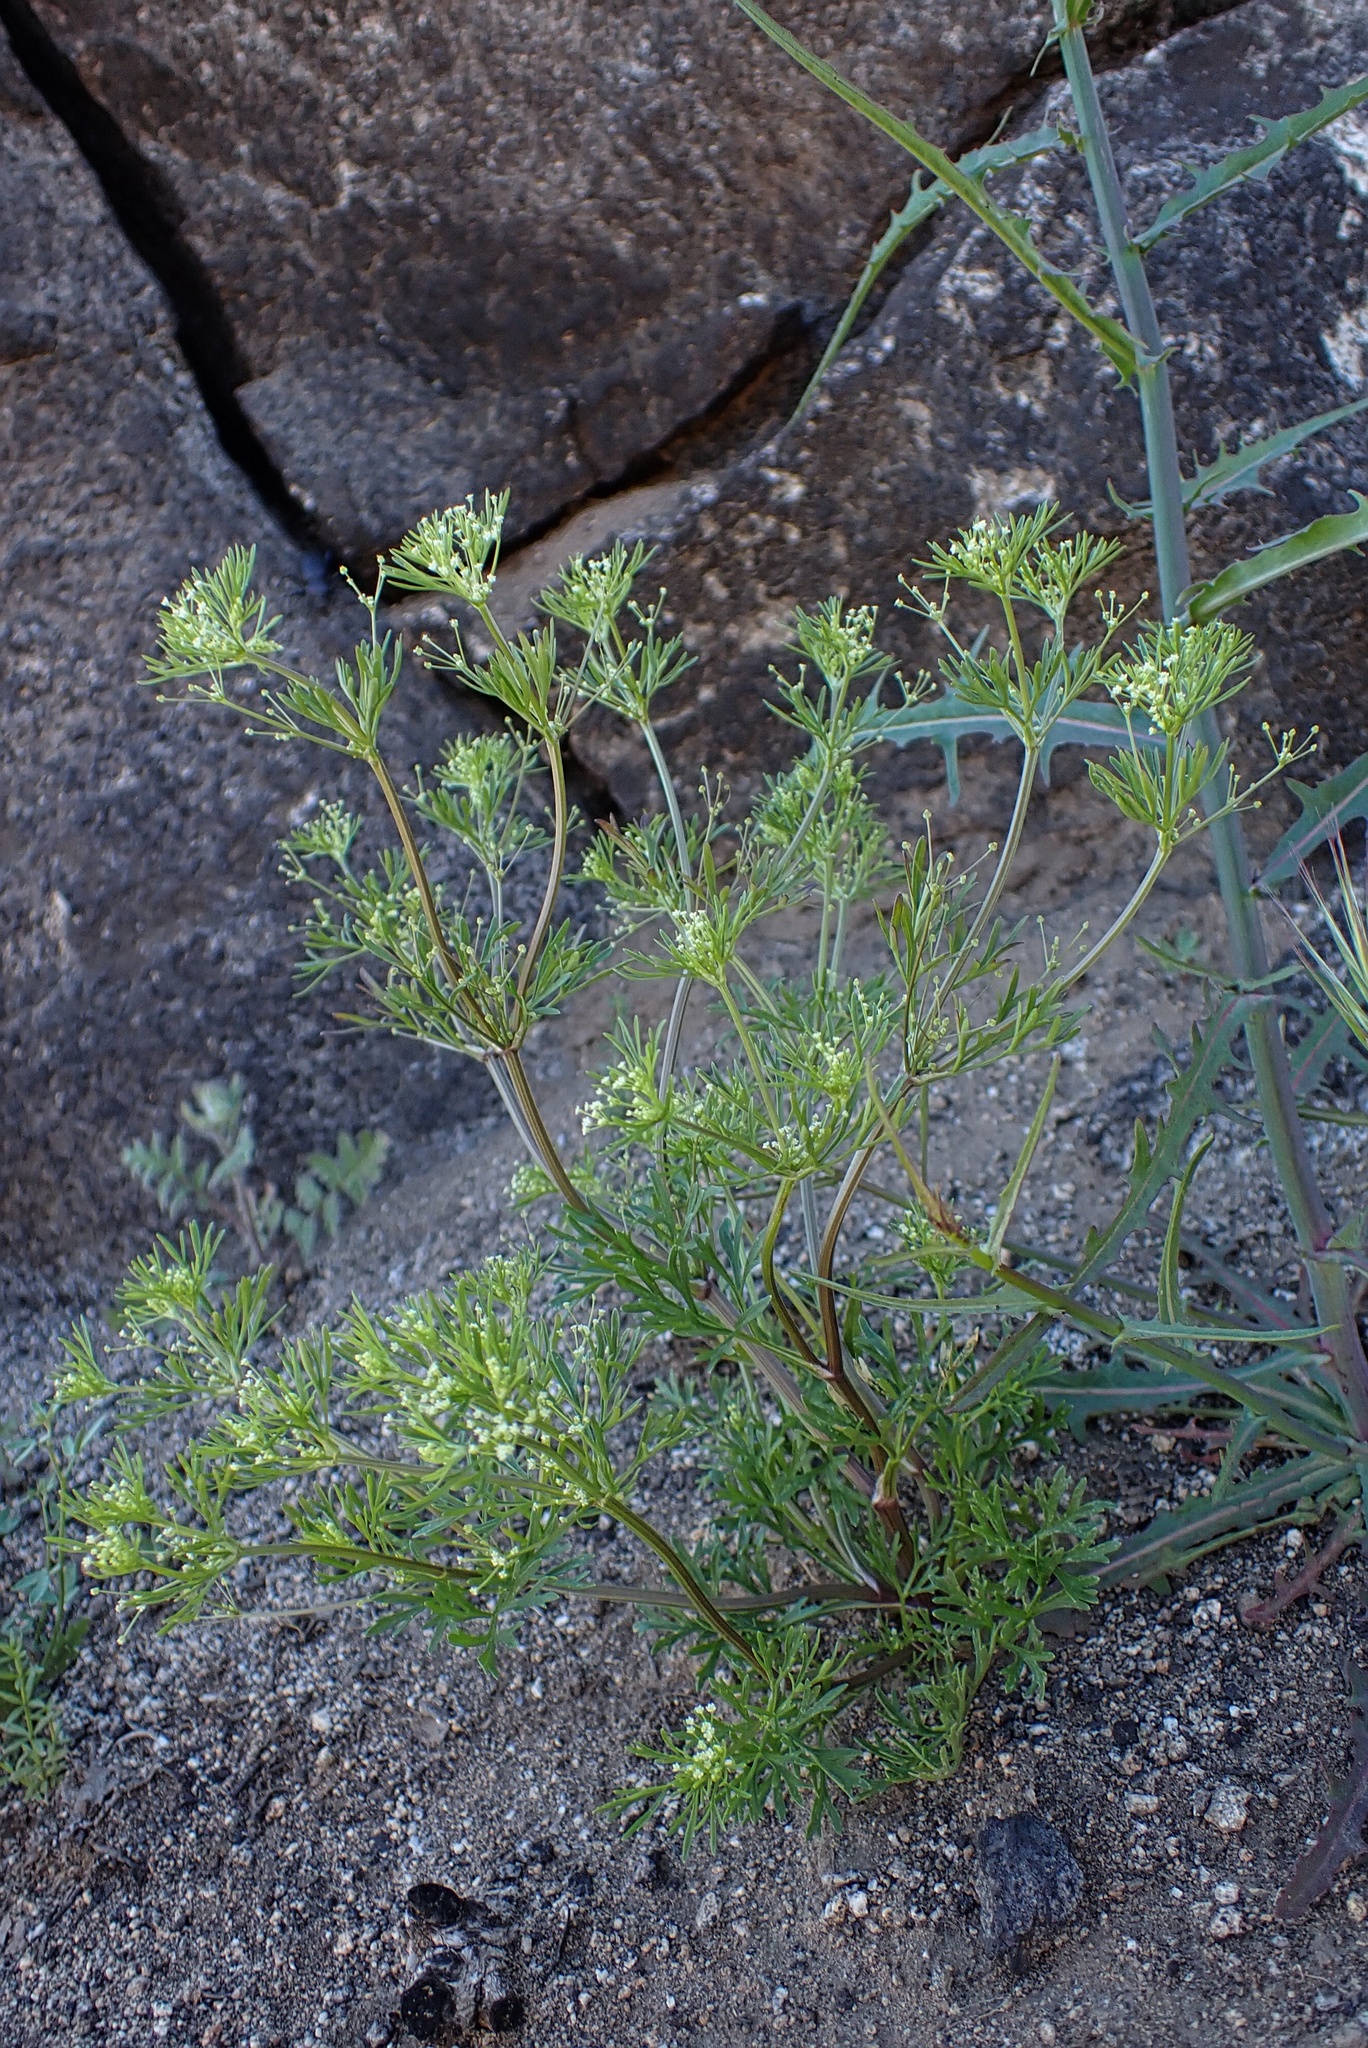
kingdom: Plantae
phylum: Tracheophyta
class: Magnoliopsida
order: Apiales
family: Apiaceae
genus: Apiastrum
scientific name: Apiastrum angustifolium
